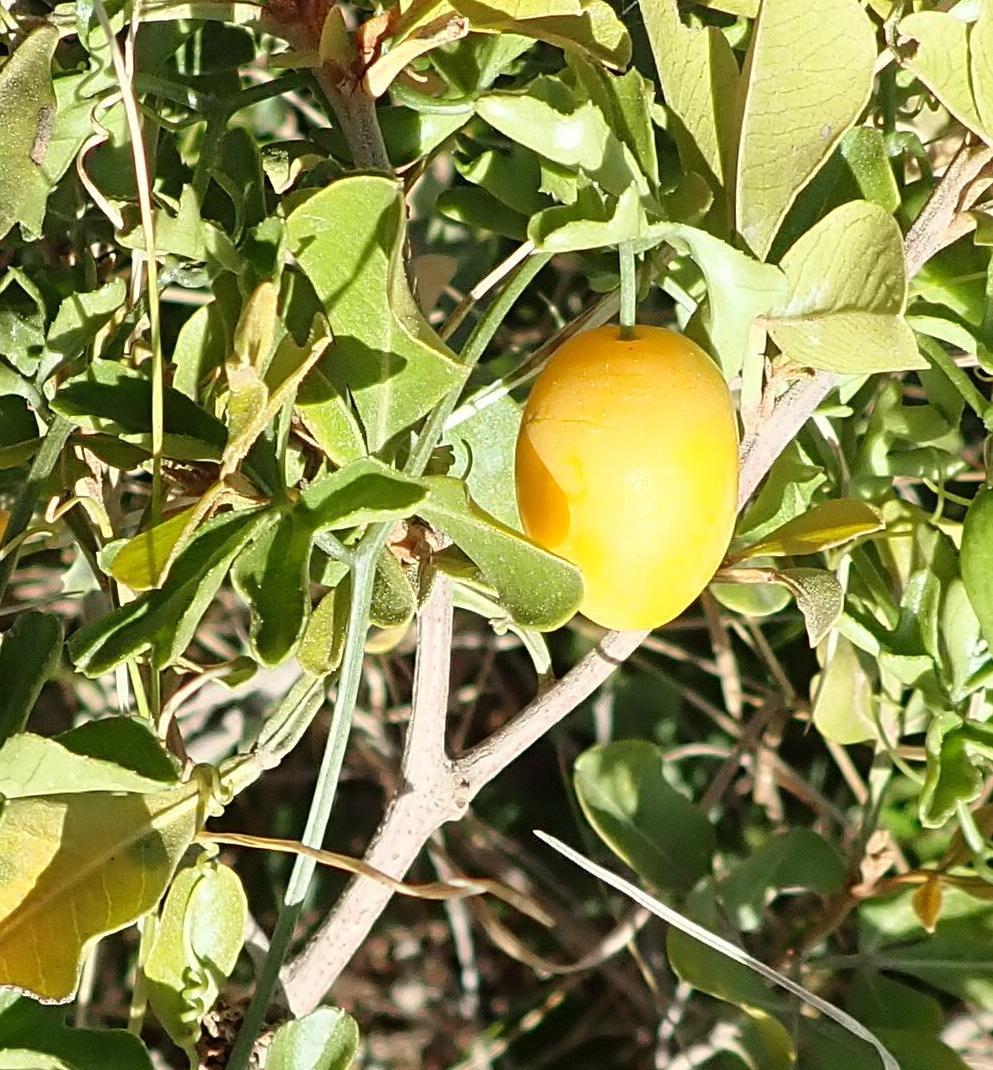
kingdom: Plantae
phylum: Tracheophyta
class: Magnoliopsida
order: Cucurbitales
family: Cucurbitaceae
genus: Kedrostis
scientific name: Kedrostis africana
